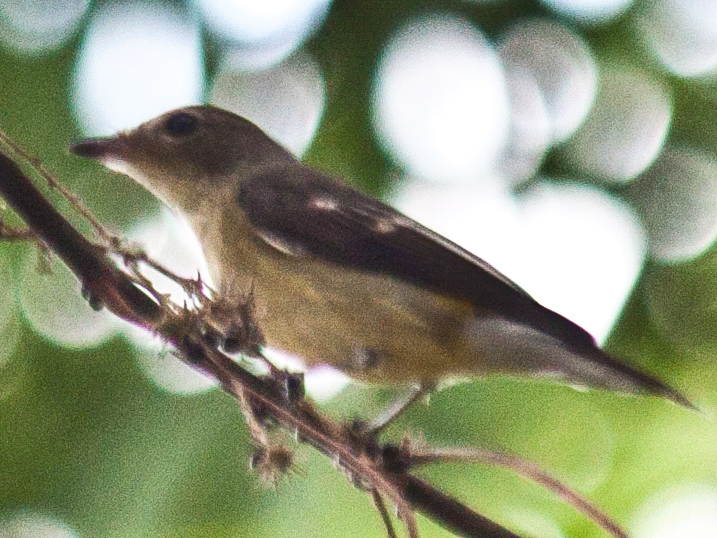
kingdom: Animalia
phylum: Chordata
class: Aves
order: Passeriformes
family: Muscicapidae
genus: Ficedula
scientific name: Ficedula zanthopygia
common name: Yellow-rumped flycatcher
